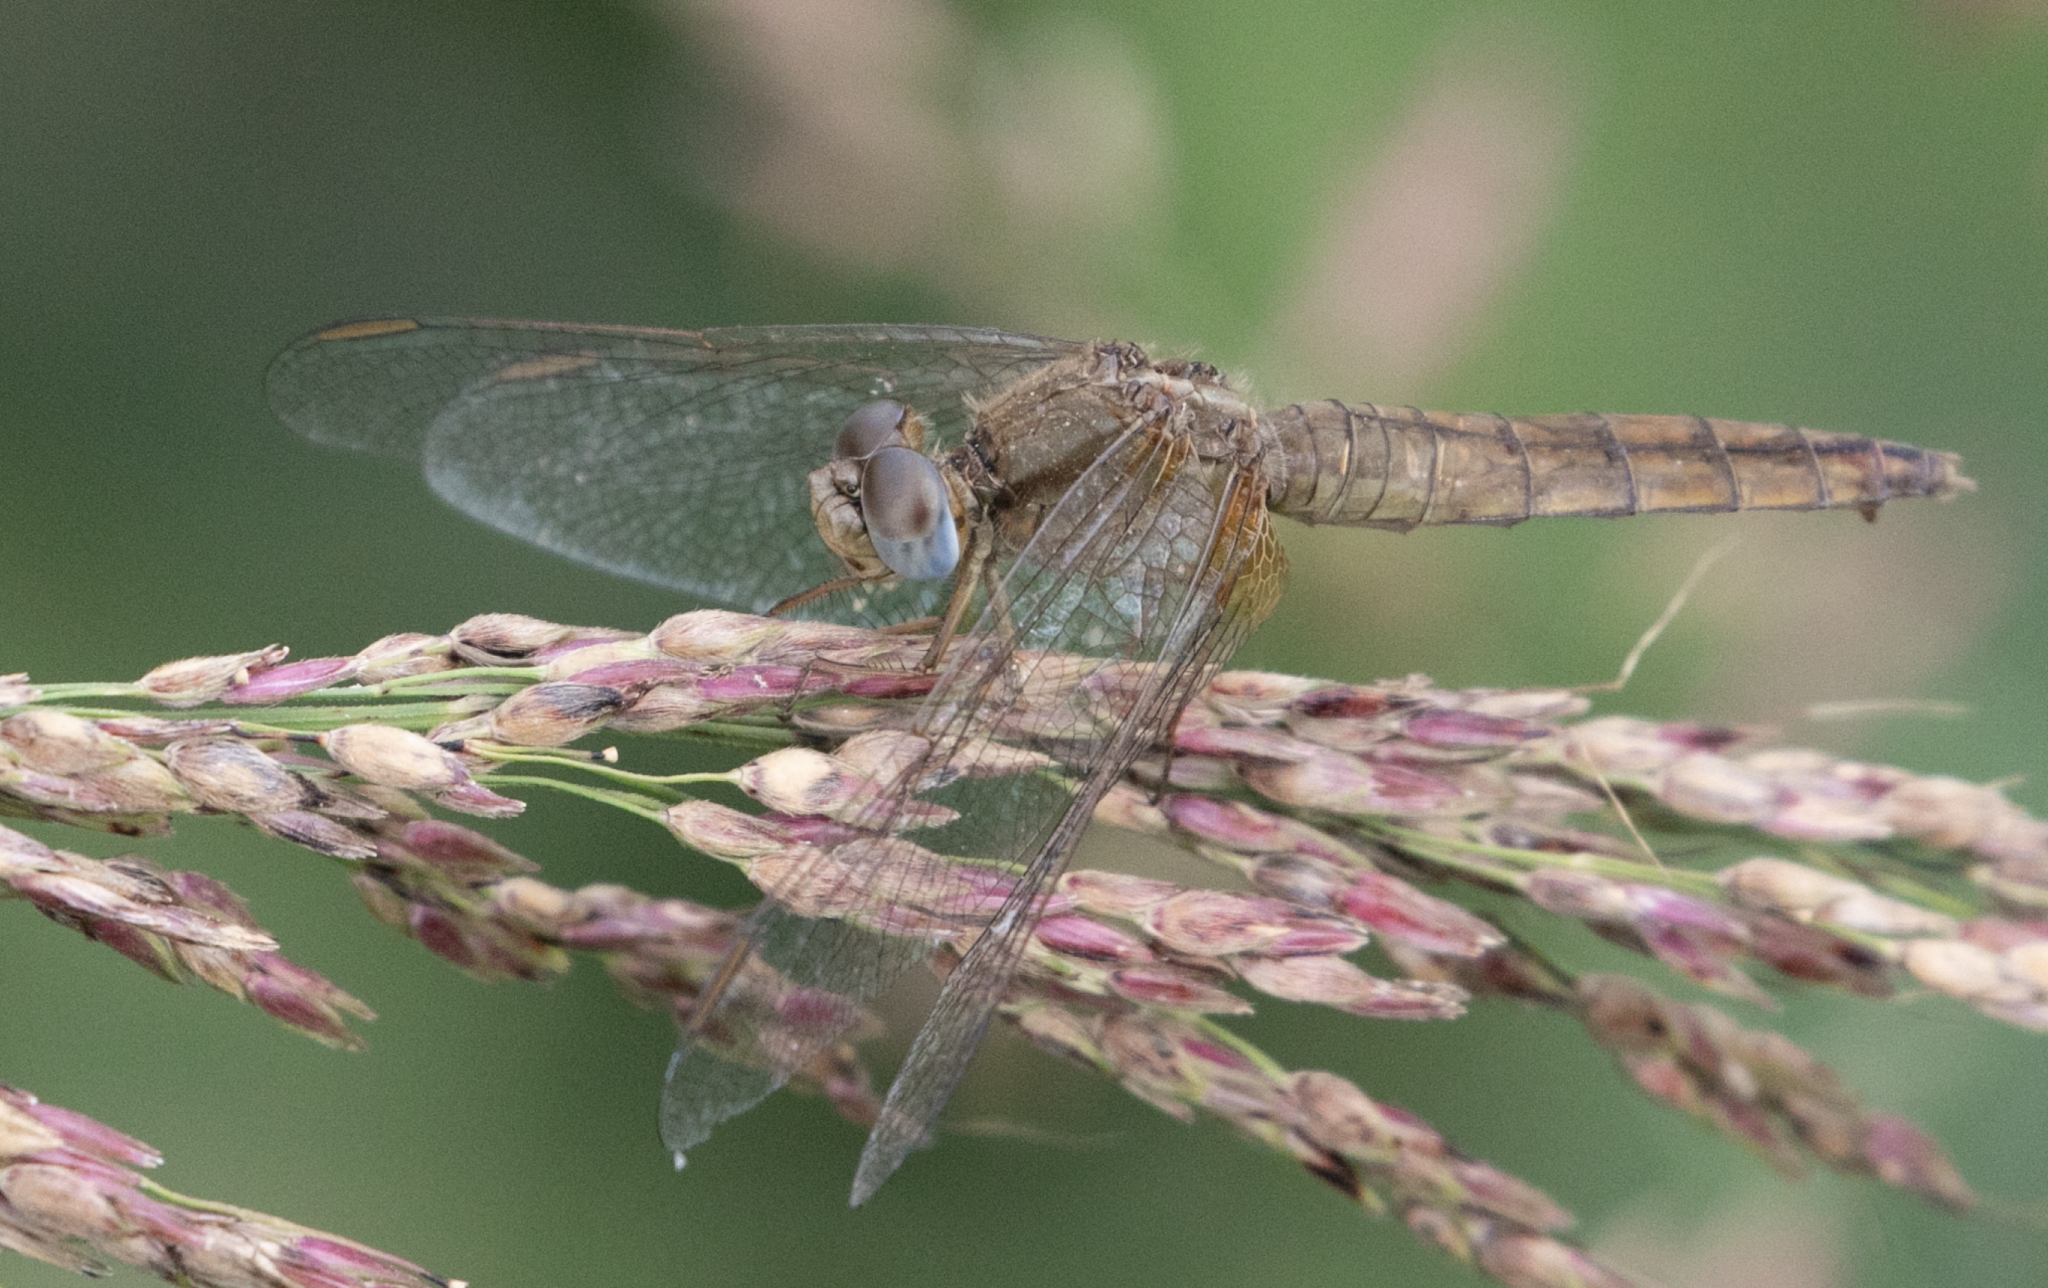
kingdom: Animalia
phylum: Arthropoda
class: Insecta
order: Odonata
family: Libellulidae
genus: Crocothemis
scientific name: Crocothemis erythraea
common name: Scarlet dragonfly
